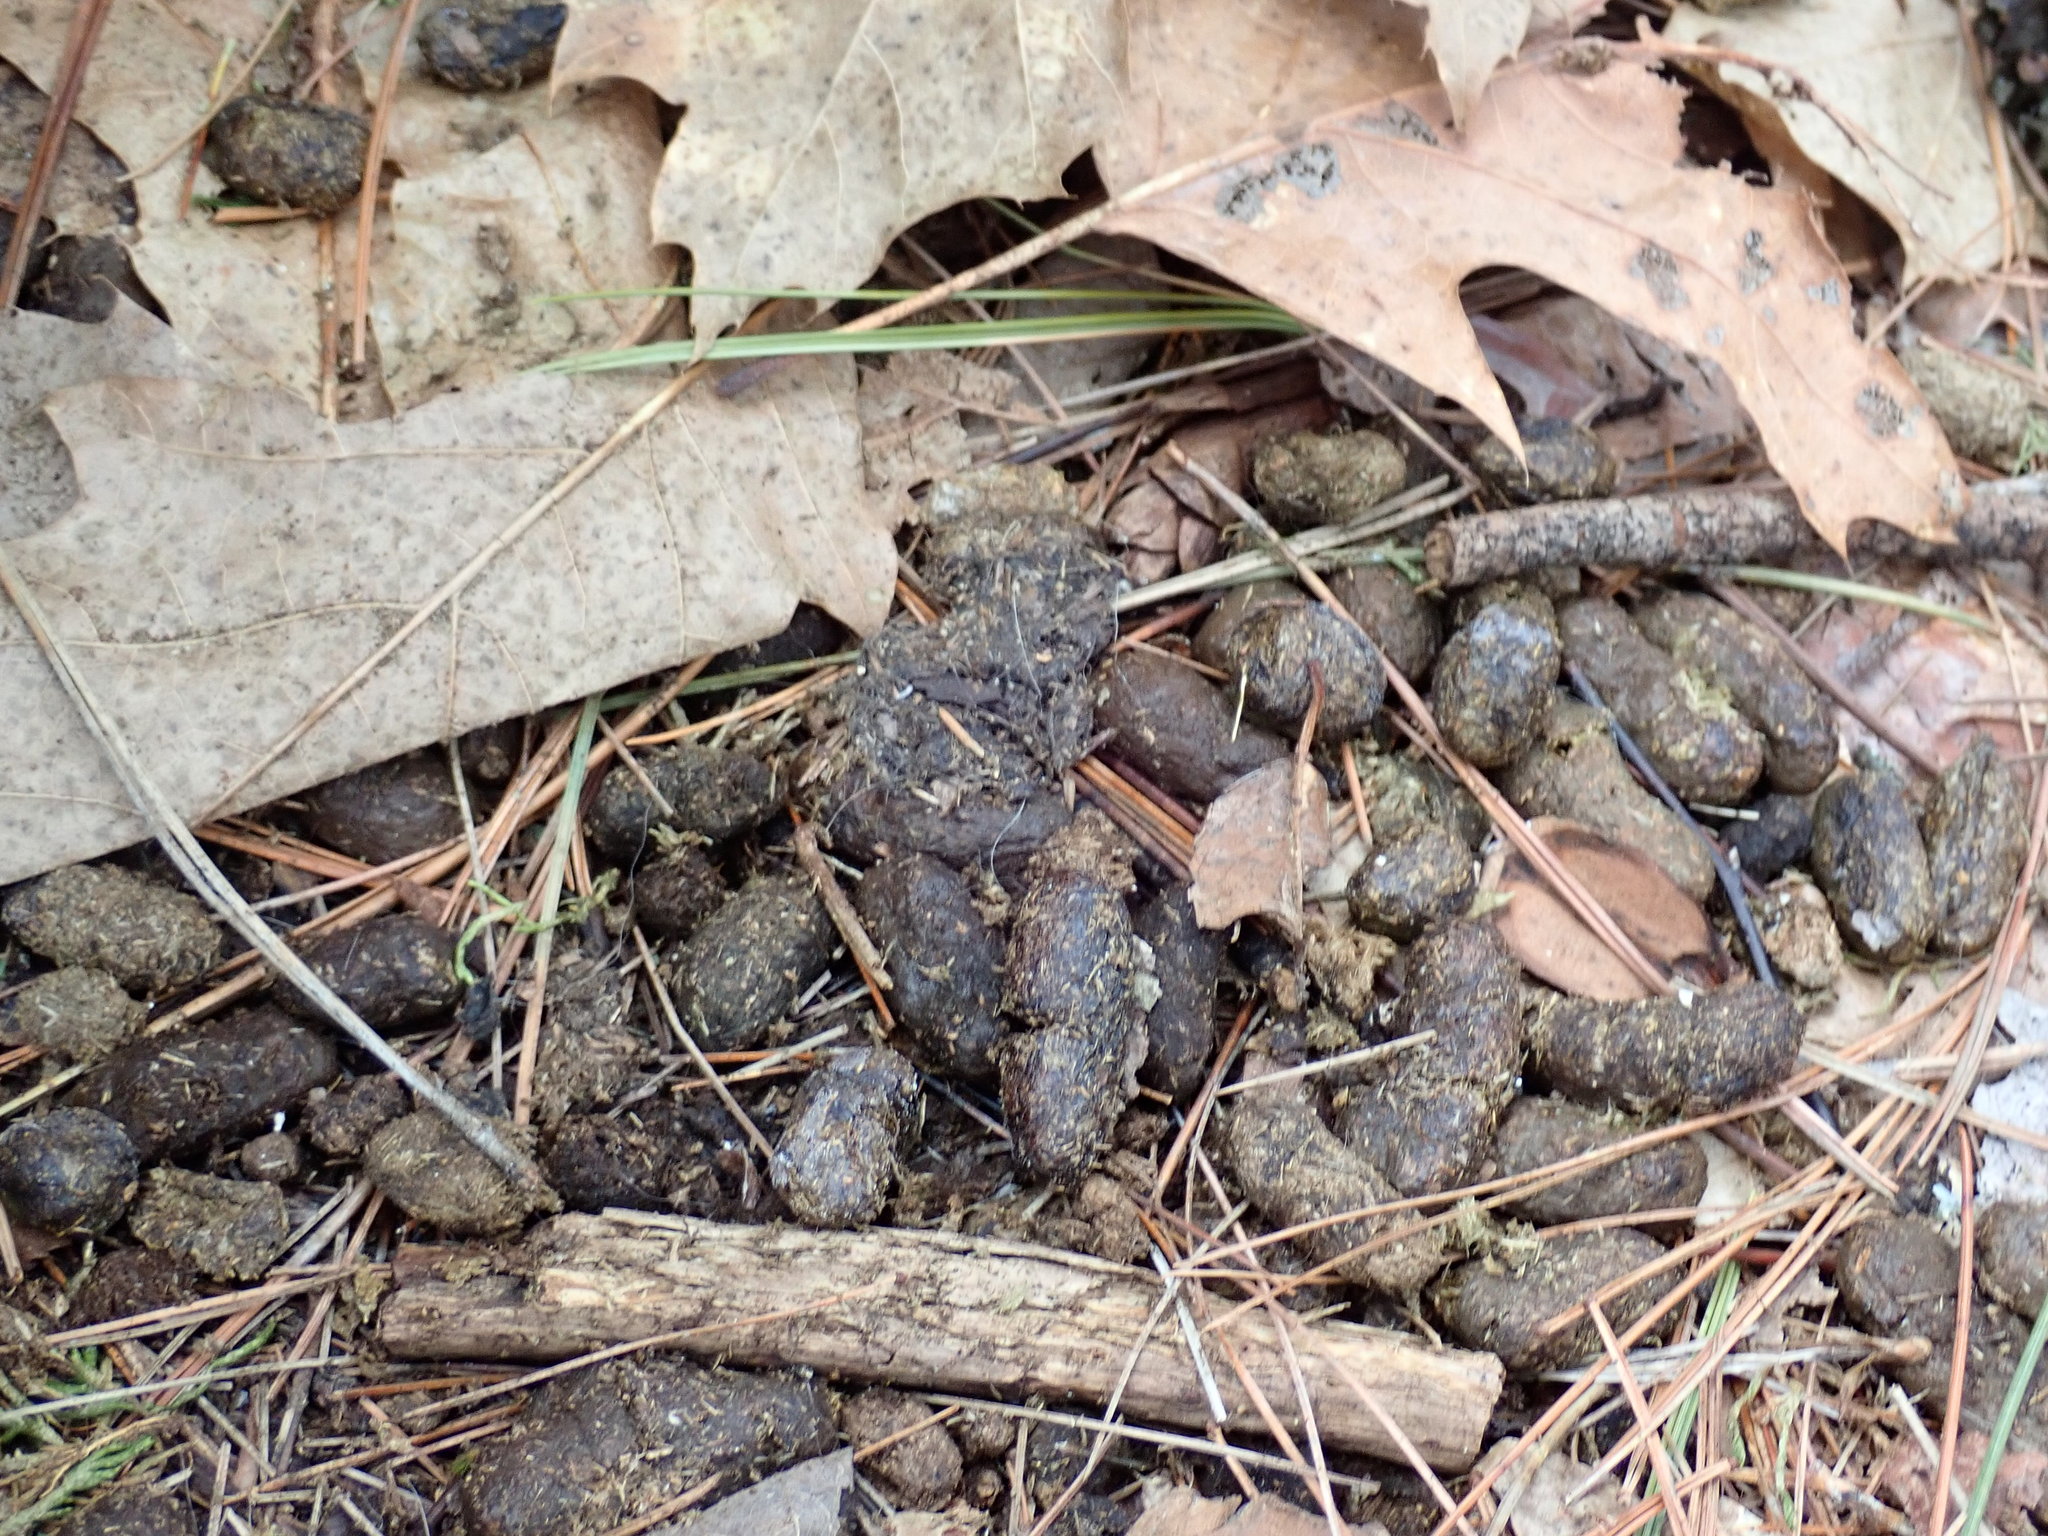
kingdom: Animalia
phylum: Chordata
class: Mammalia
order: Rodentia
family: Erethizontidae
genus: Erethizon
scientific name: Erethizon dorsatus
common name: North american porcupine
